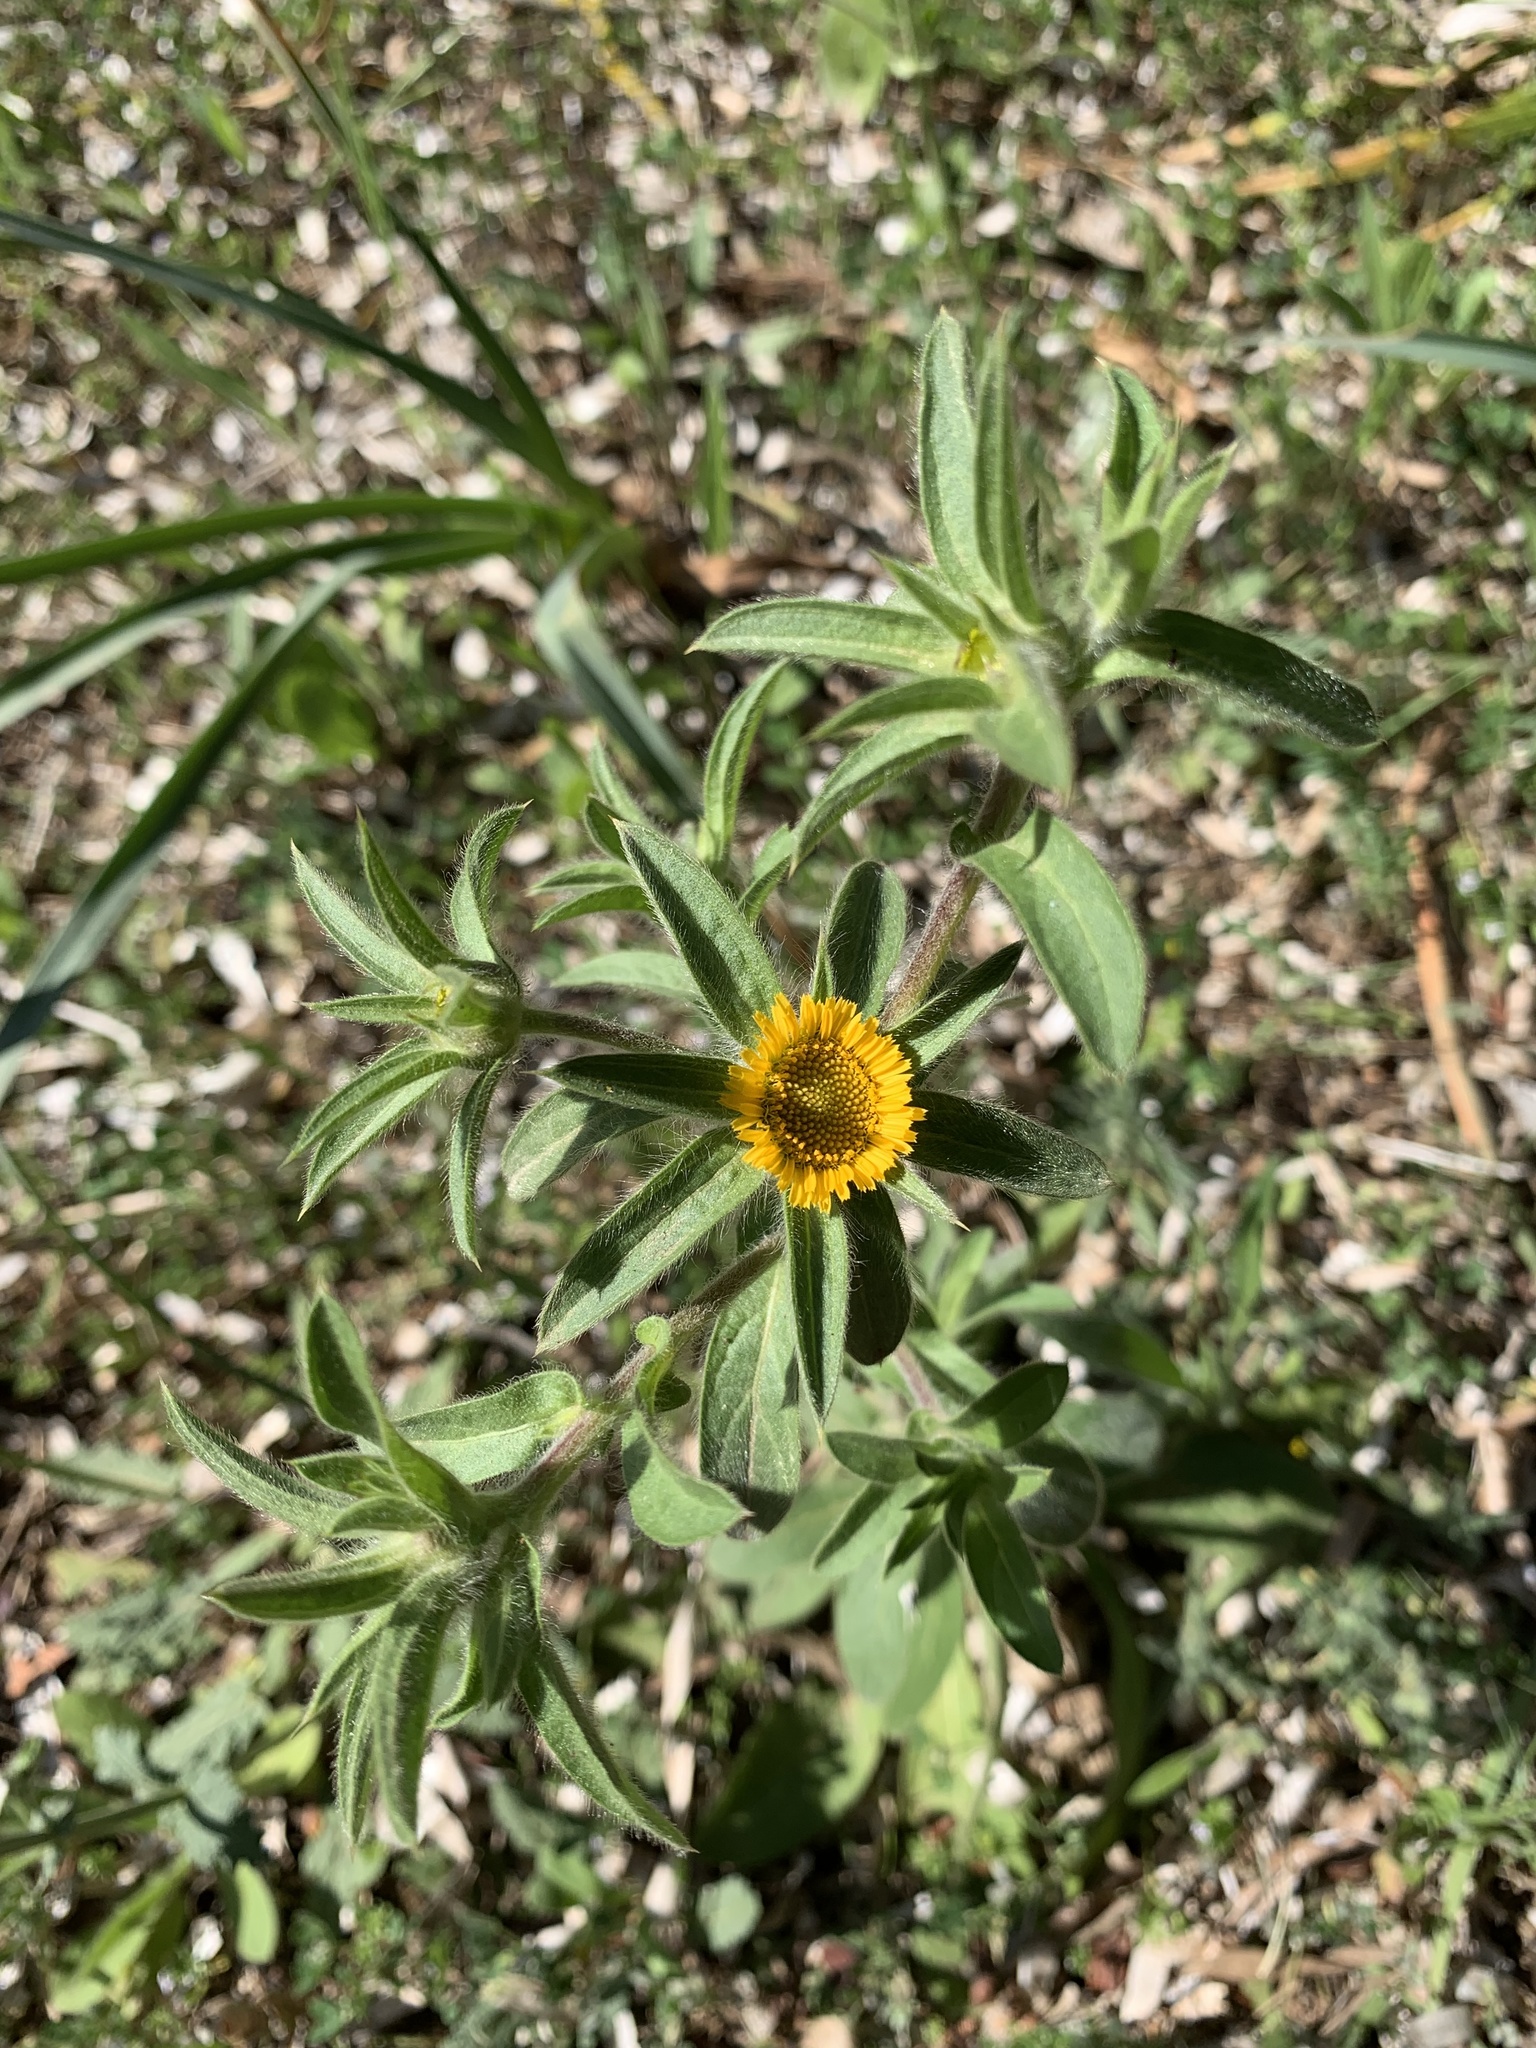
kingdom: Plantae
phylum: Tracheophyta
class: Magnoliopsida
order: Asterales
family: Asteraceae
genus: Pallenis
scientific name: Pallenis spinosa
